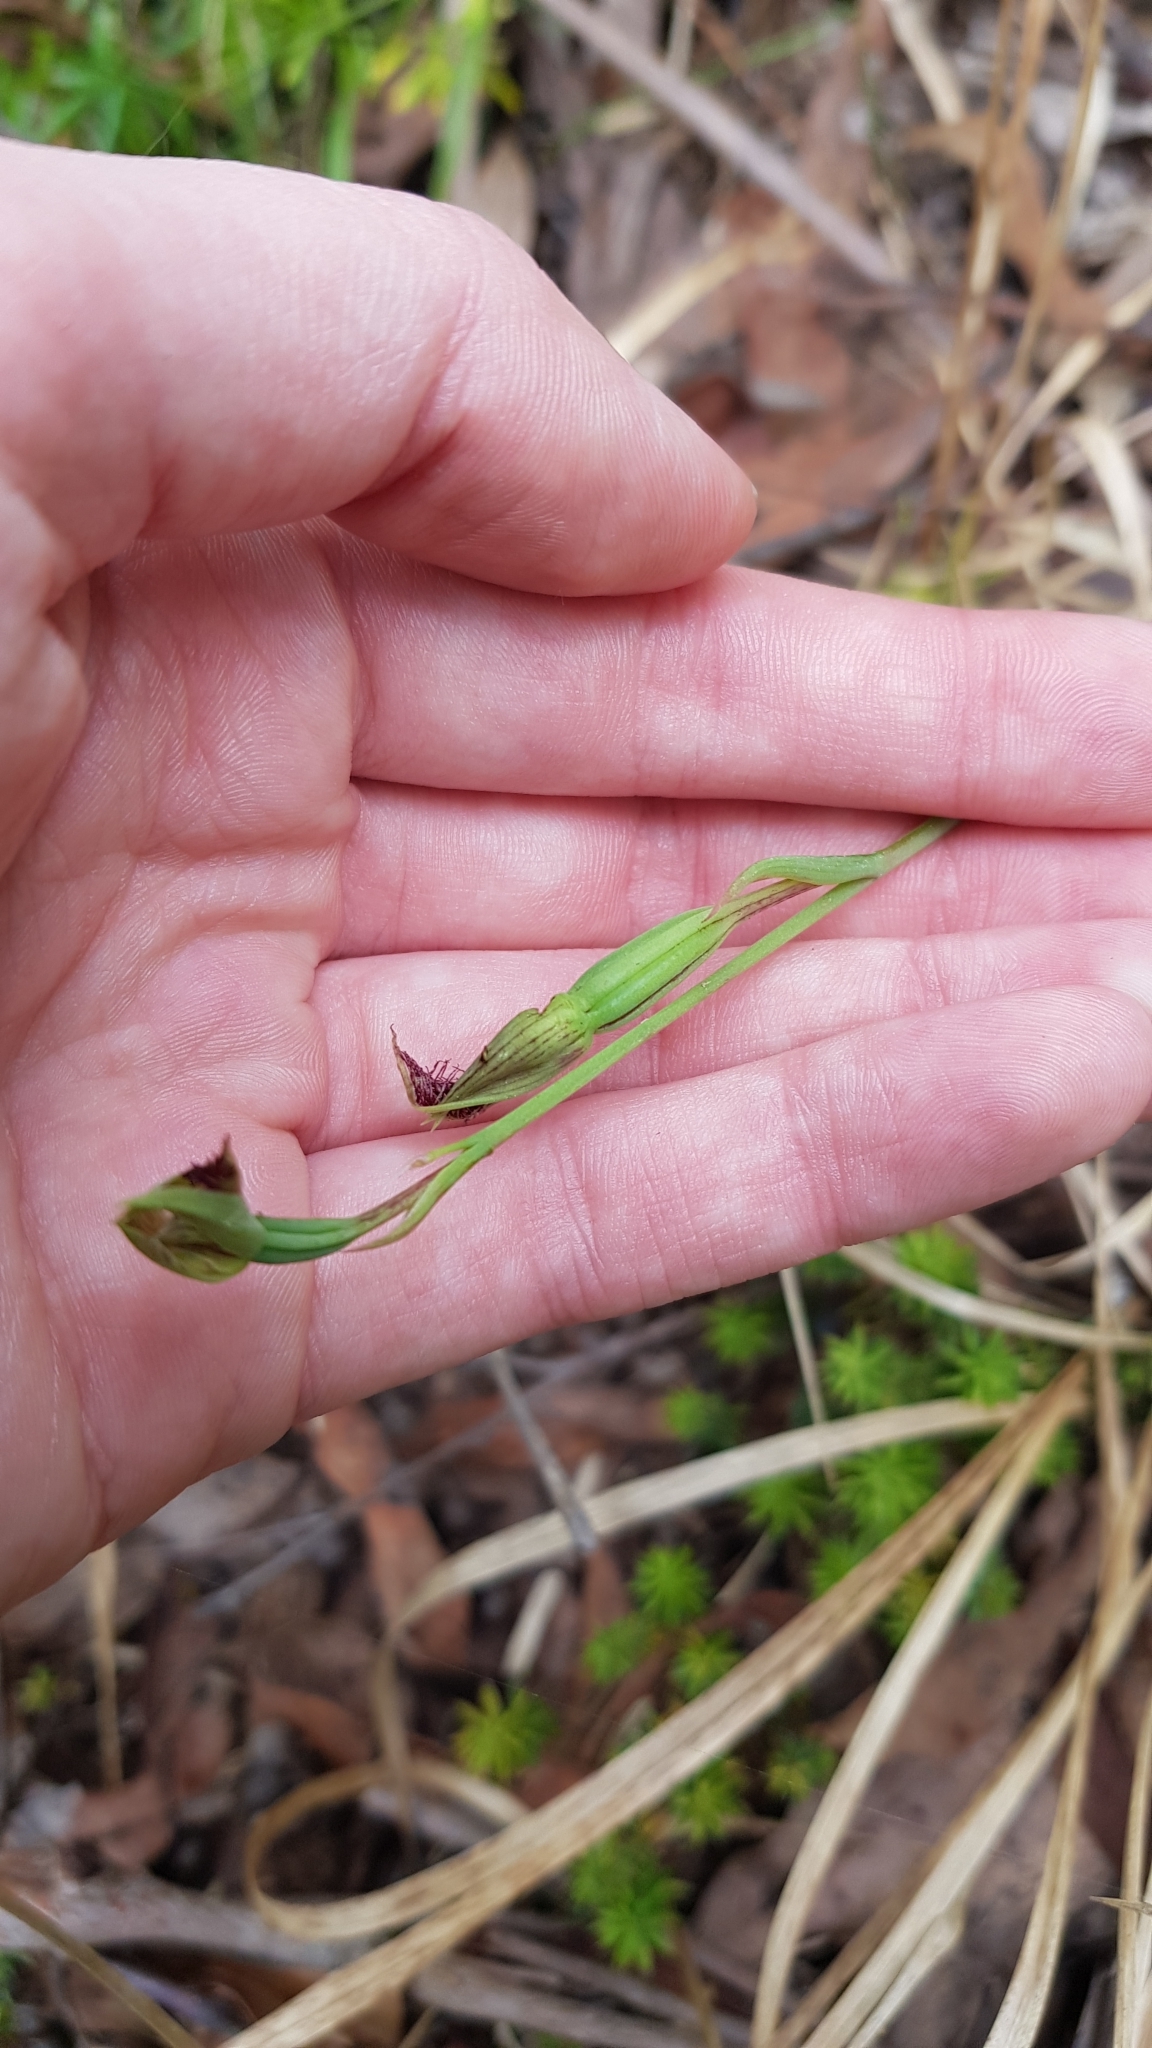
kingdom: Plantae
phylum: Tracheophyta
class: Liliopsida
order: Asparagales
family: Orchidaceae
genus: Calochilus
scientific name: Calochilus robertsonii
